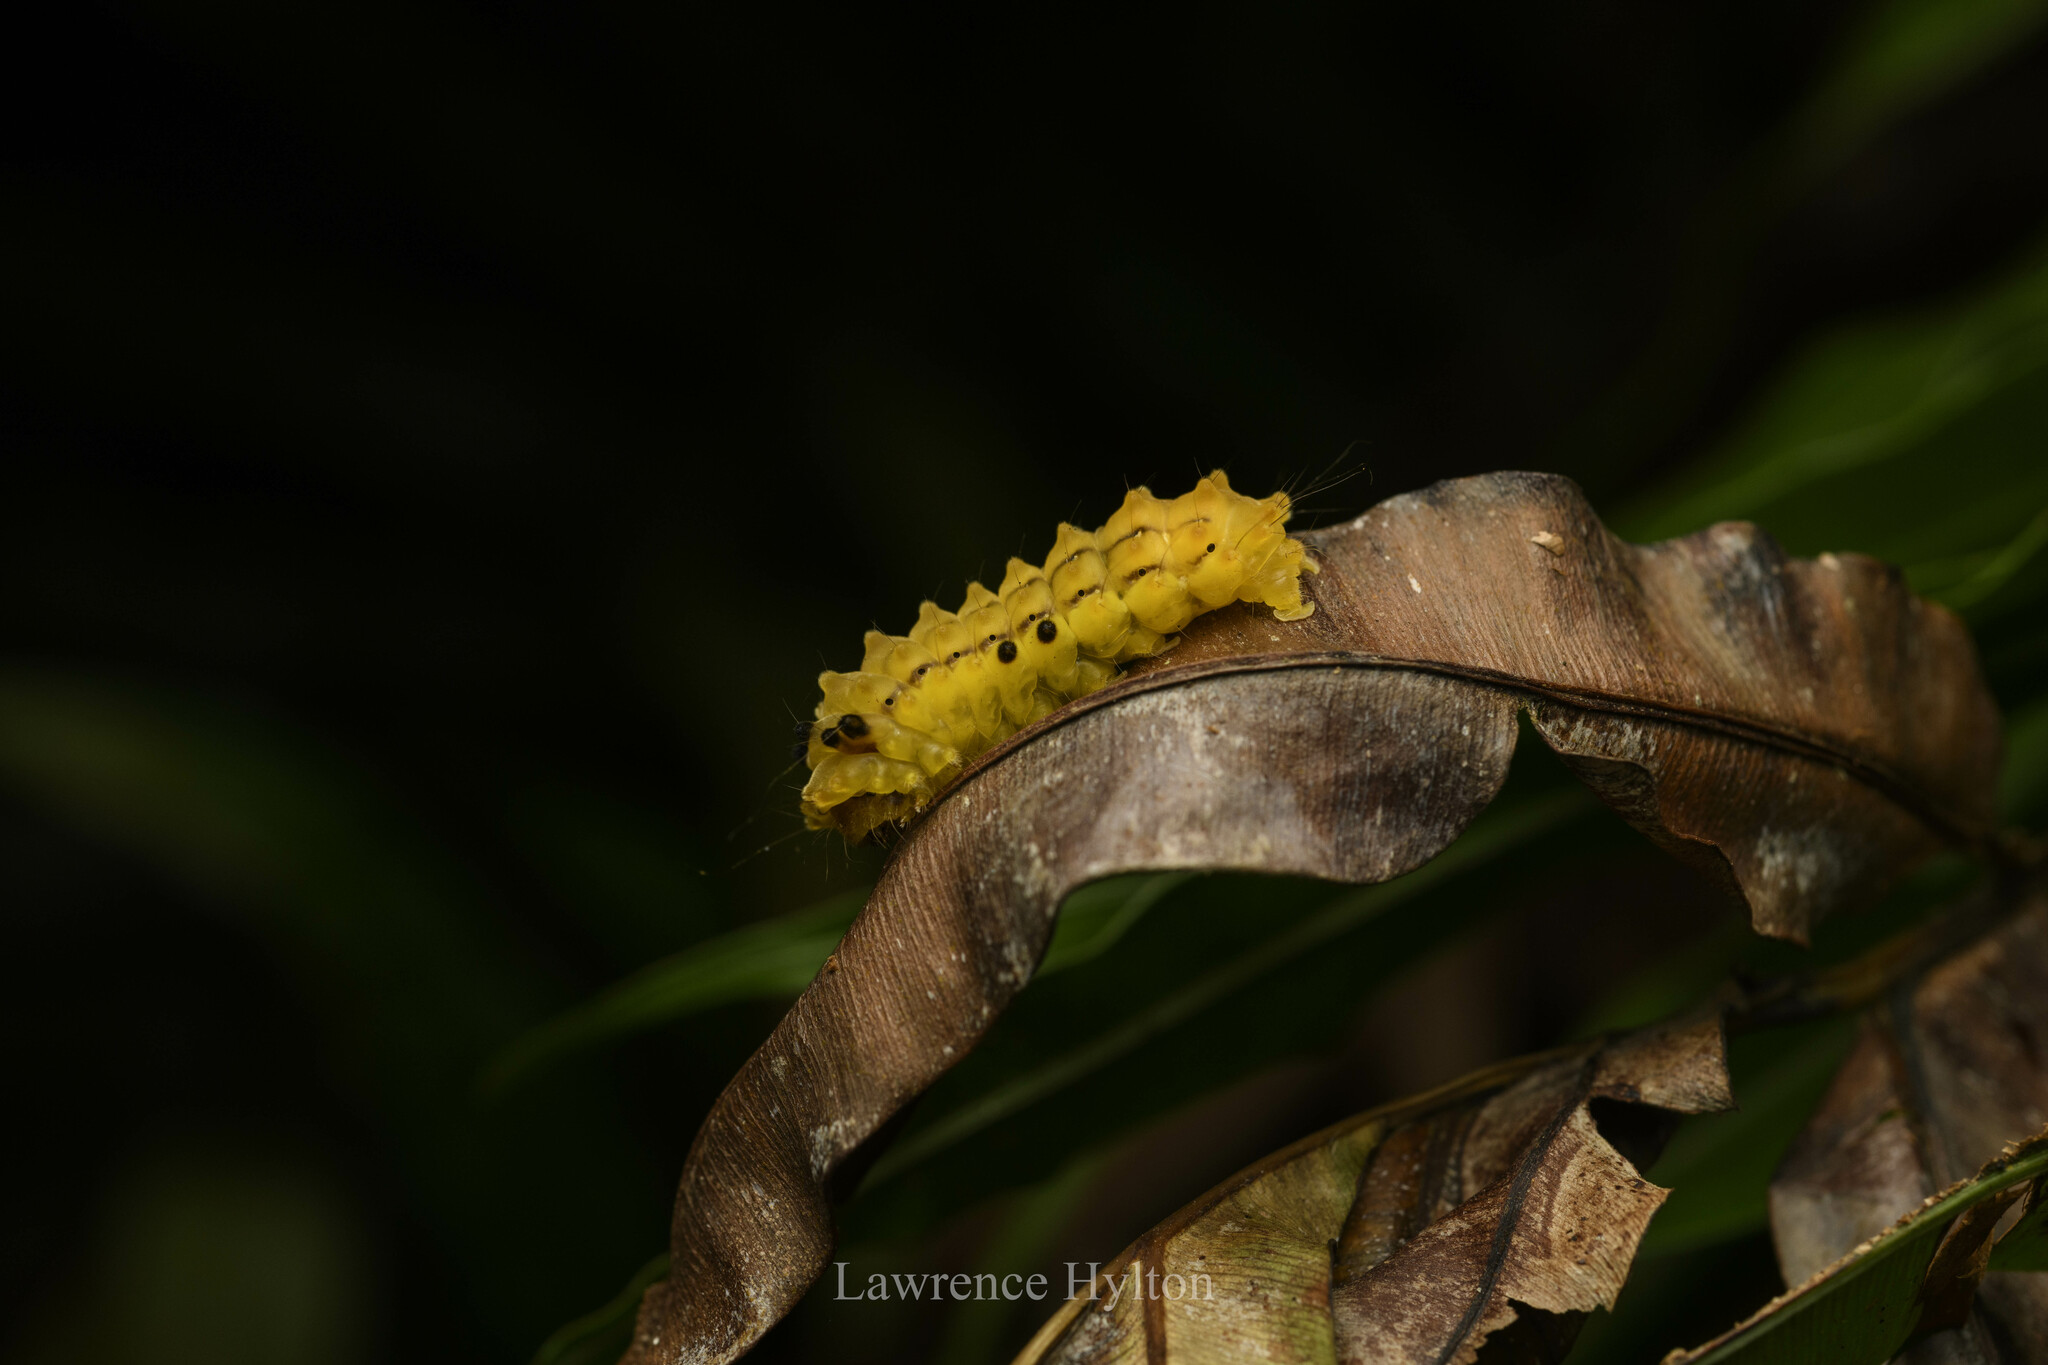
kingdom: Animalia
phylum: Arthropoda
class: Insecta
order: Lepidoptera
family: Zygaenidae
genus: Chalcosia
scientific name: Chalcosia suffusa
